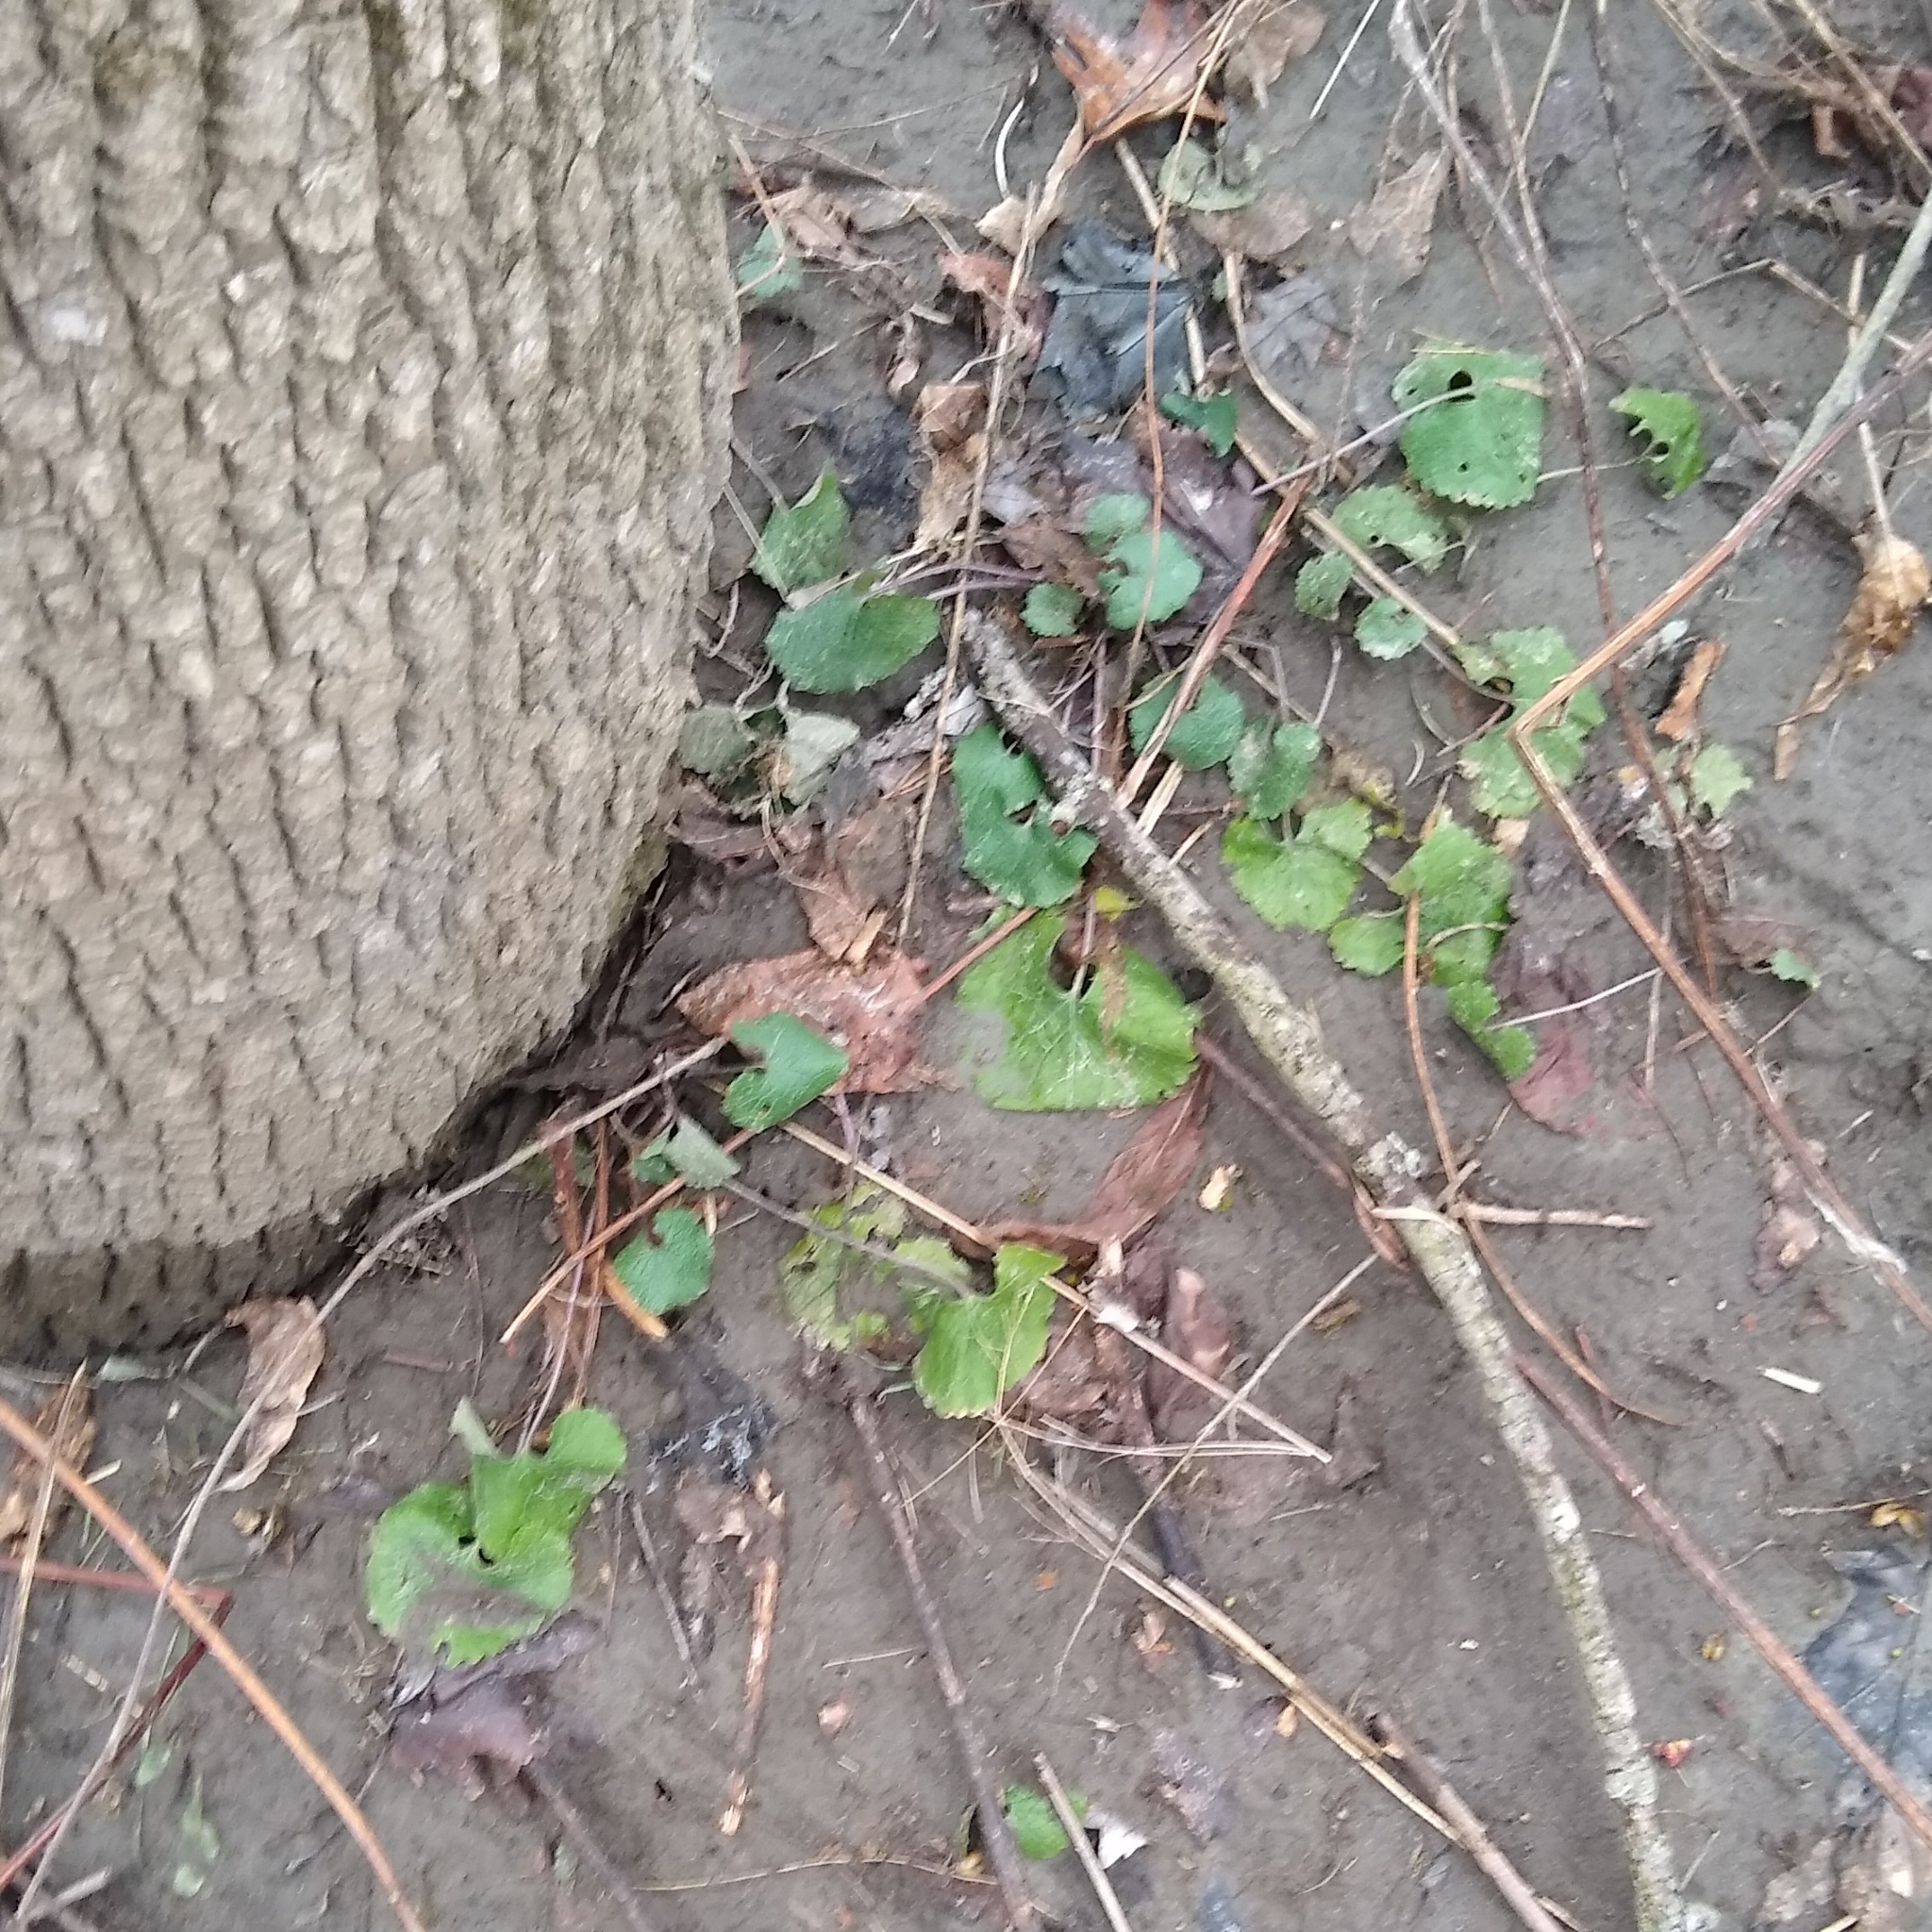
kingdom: Plantae
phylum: Tracheophyta
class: Magnoliopsida
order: Brassicales
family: Brassicaceae
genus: Alliaria
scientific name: Alliaria petiolata
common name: Garlic mustard
